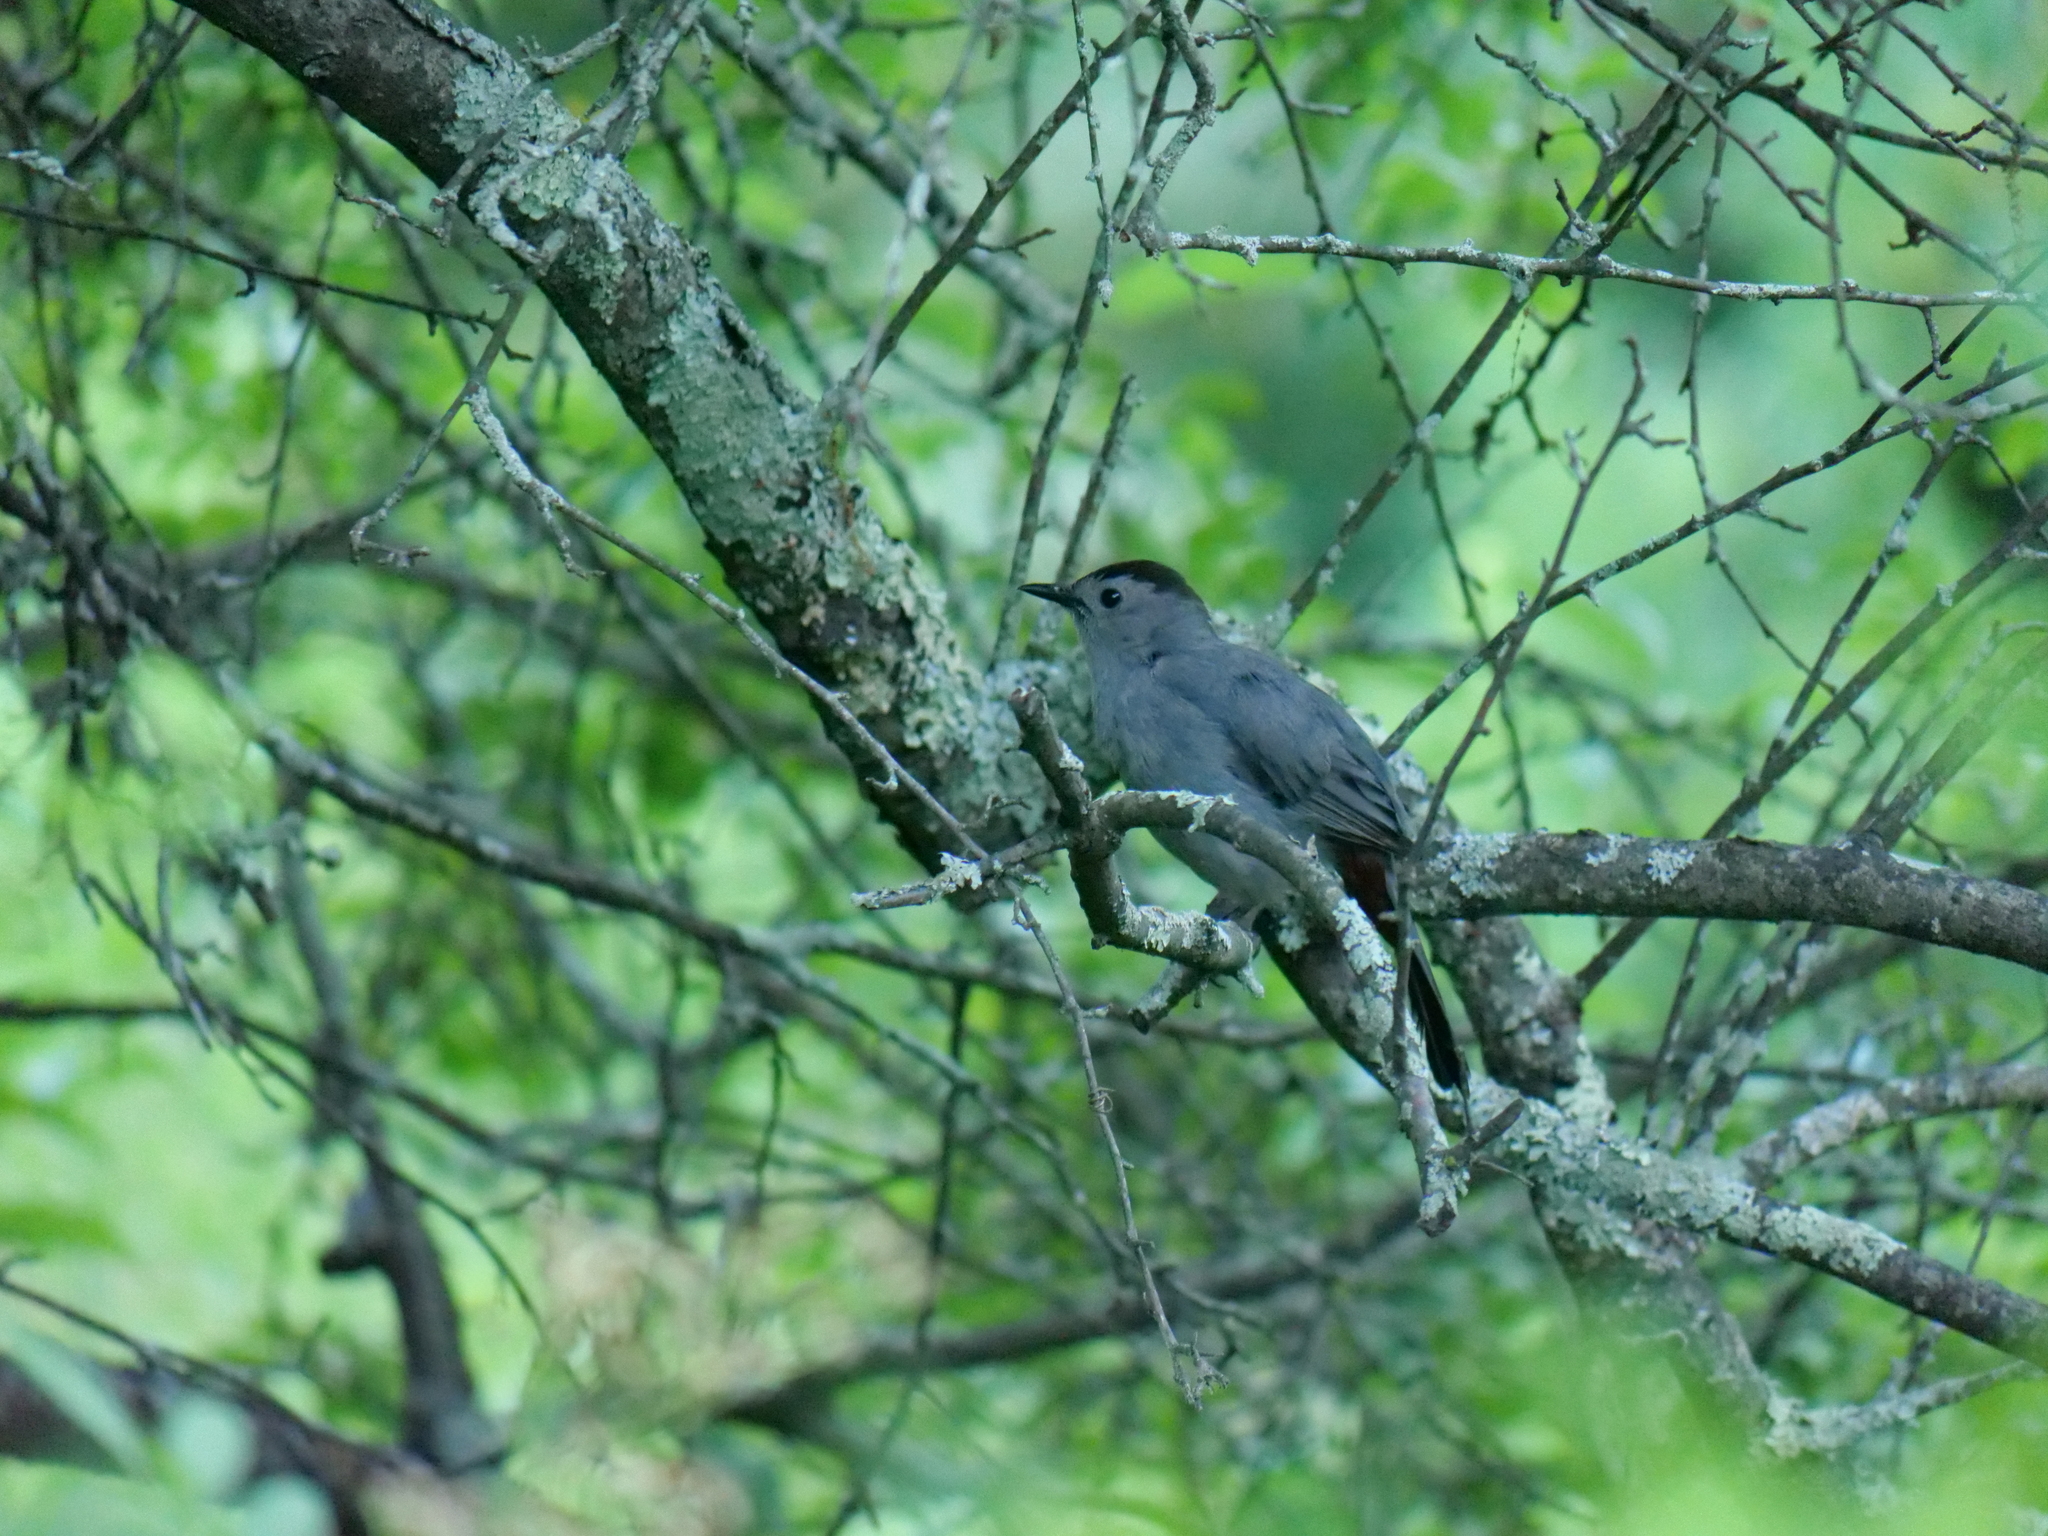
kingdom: Animalia
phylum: Chordata
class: Aves
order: Passeriformes
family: Mimidae
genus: Dumetella
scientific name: Dumetella carolinensis
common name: Gray catbird
